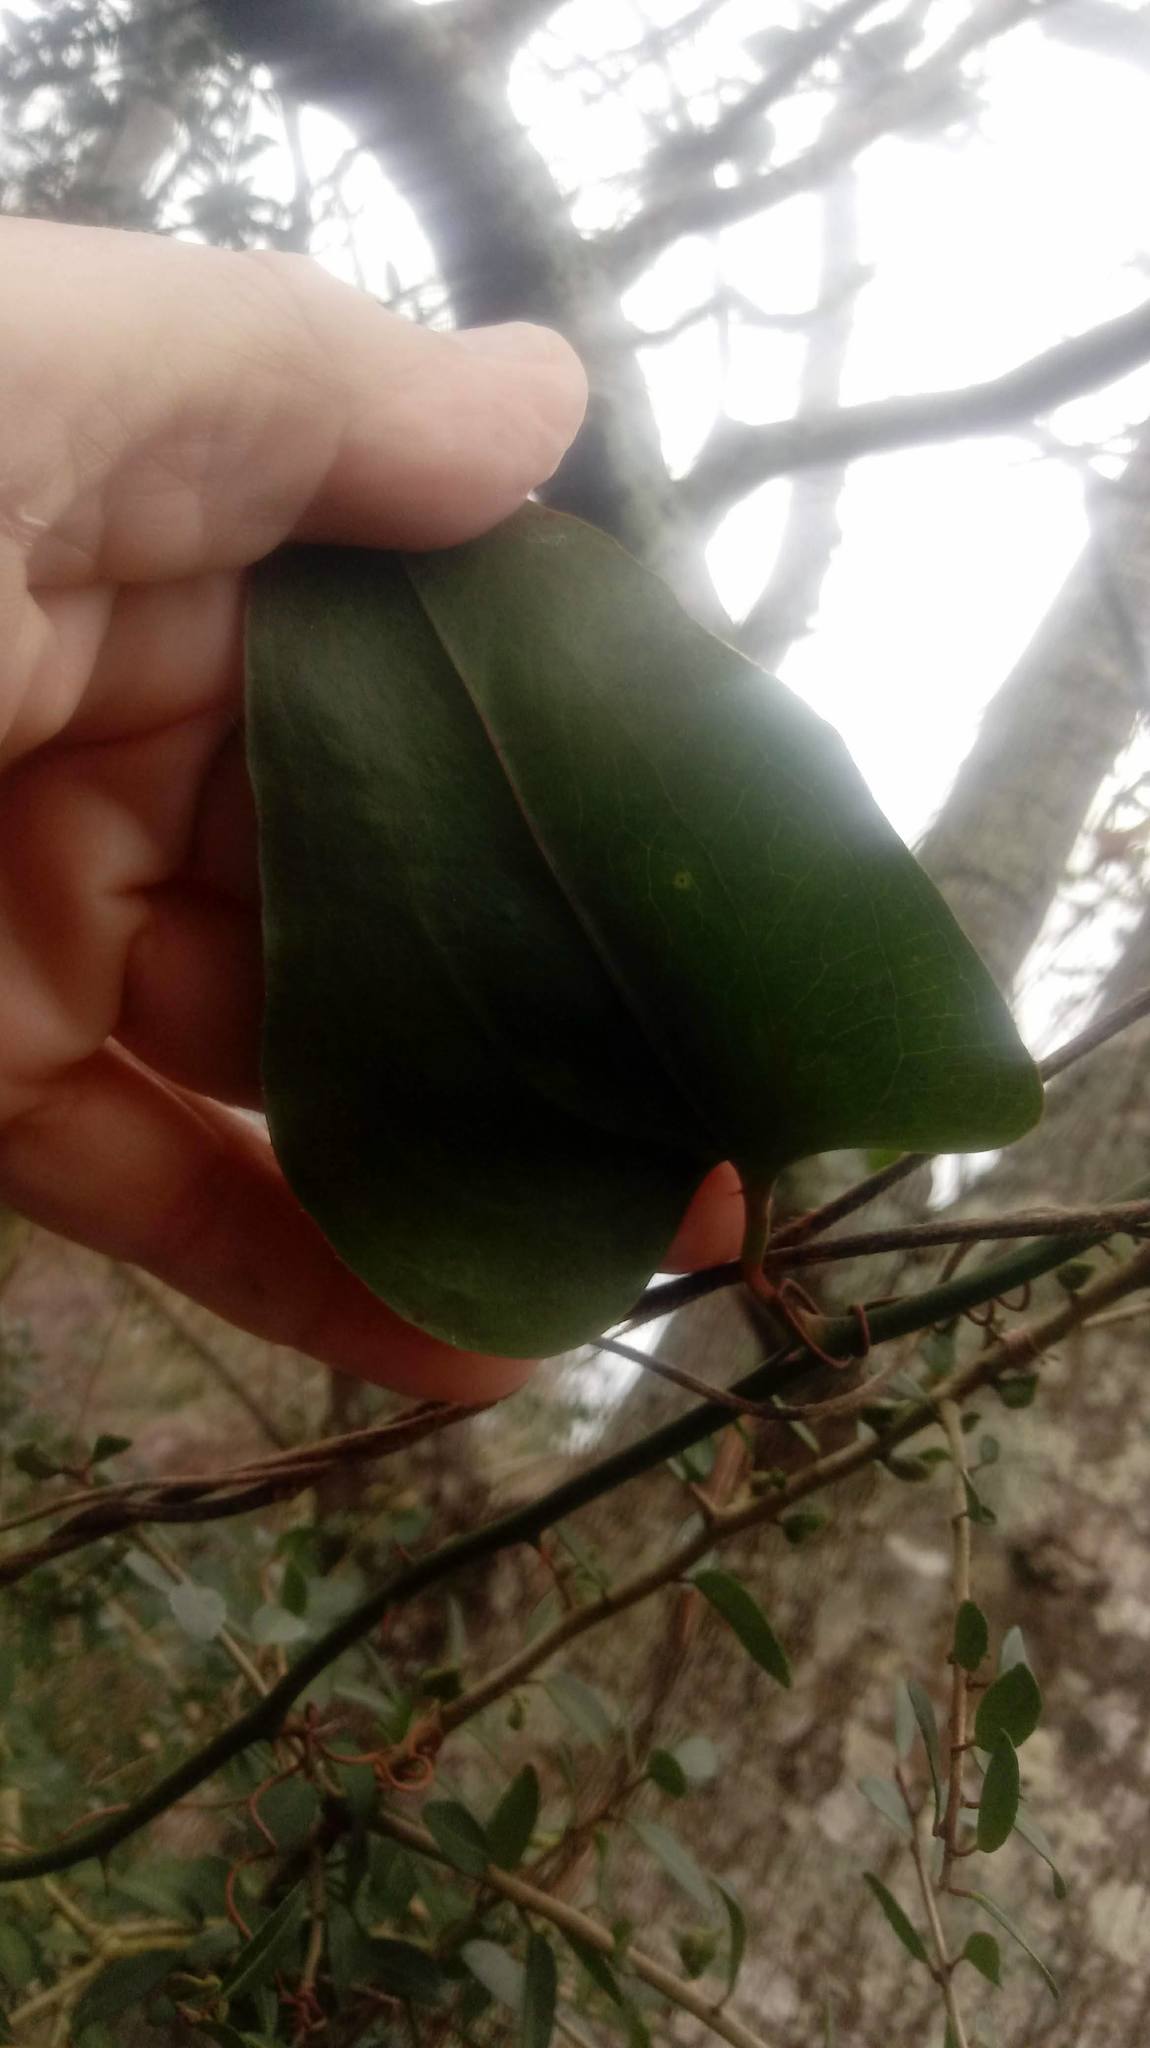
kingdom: Plantae
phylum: Tracheophyta
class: Liliopsida
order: Liliales
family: Smilacaceae
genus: Smilax
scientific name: Smilax bona-nox
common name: Catbrier
